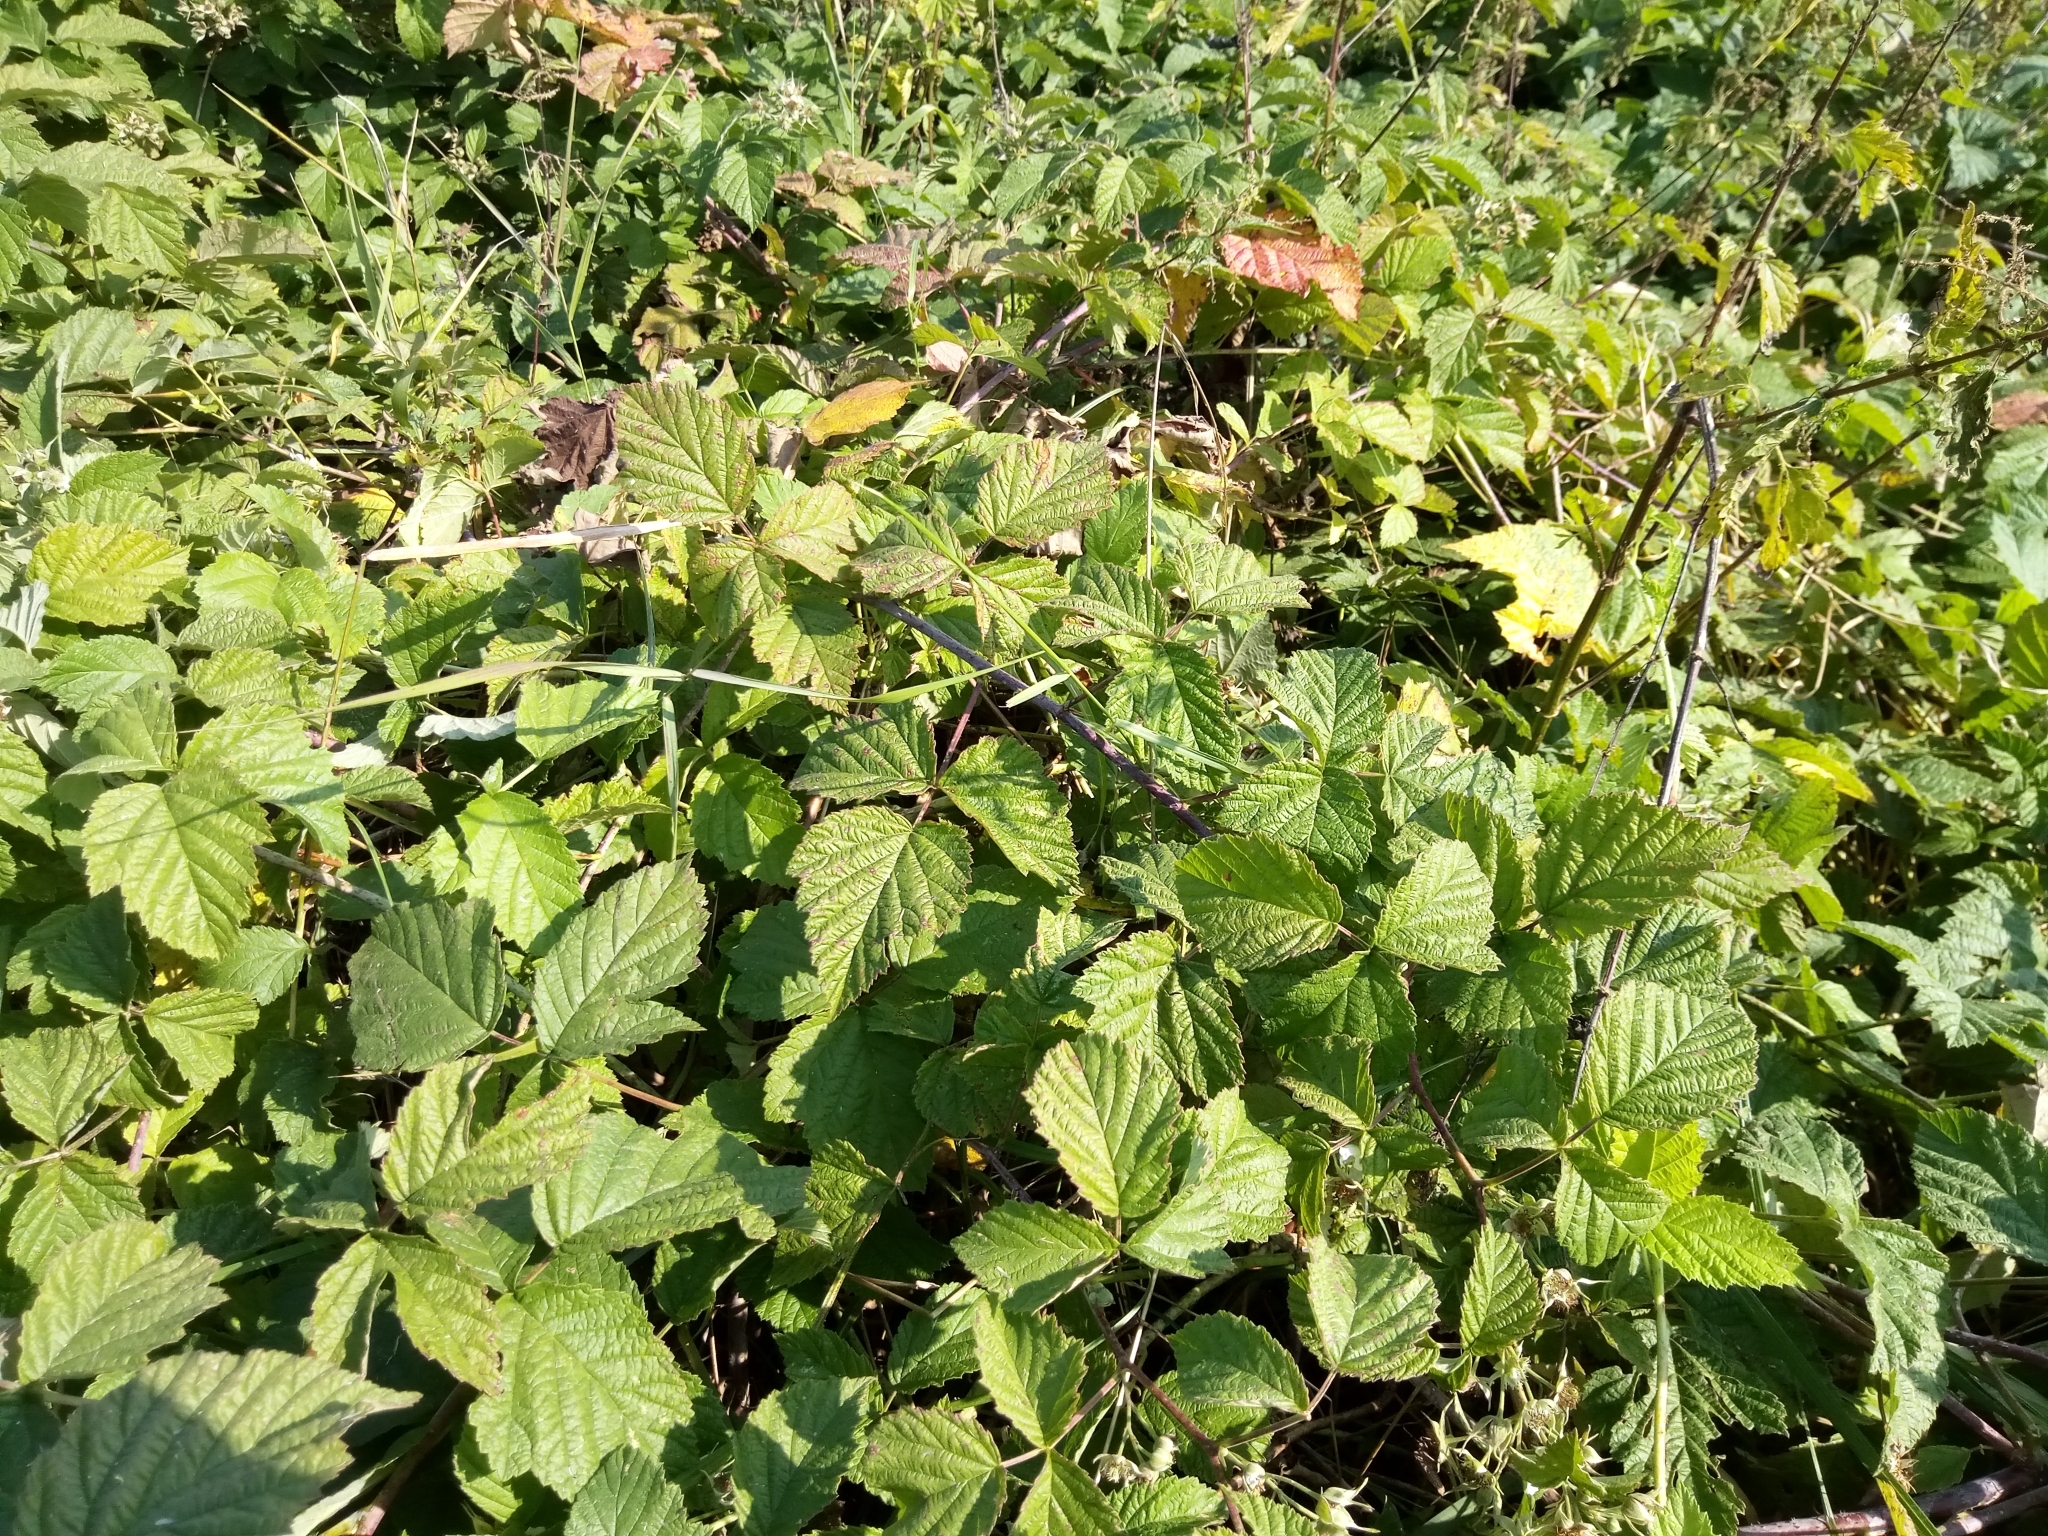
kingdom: Plantae
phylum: Tracheophyta
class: Magnoliopsida
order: Rosales
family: Rosaceae
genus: Rubus
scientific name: Rubus caesius
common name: Dewberry
